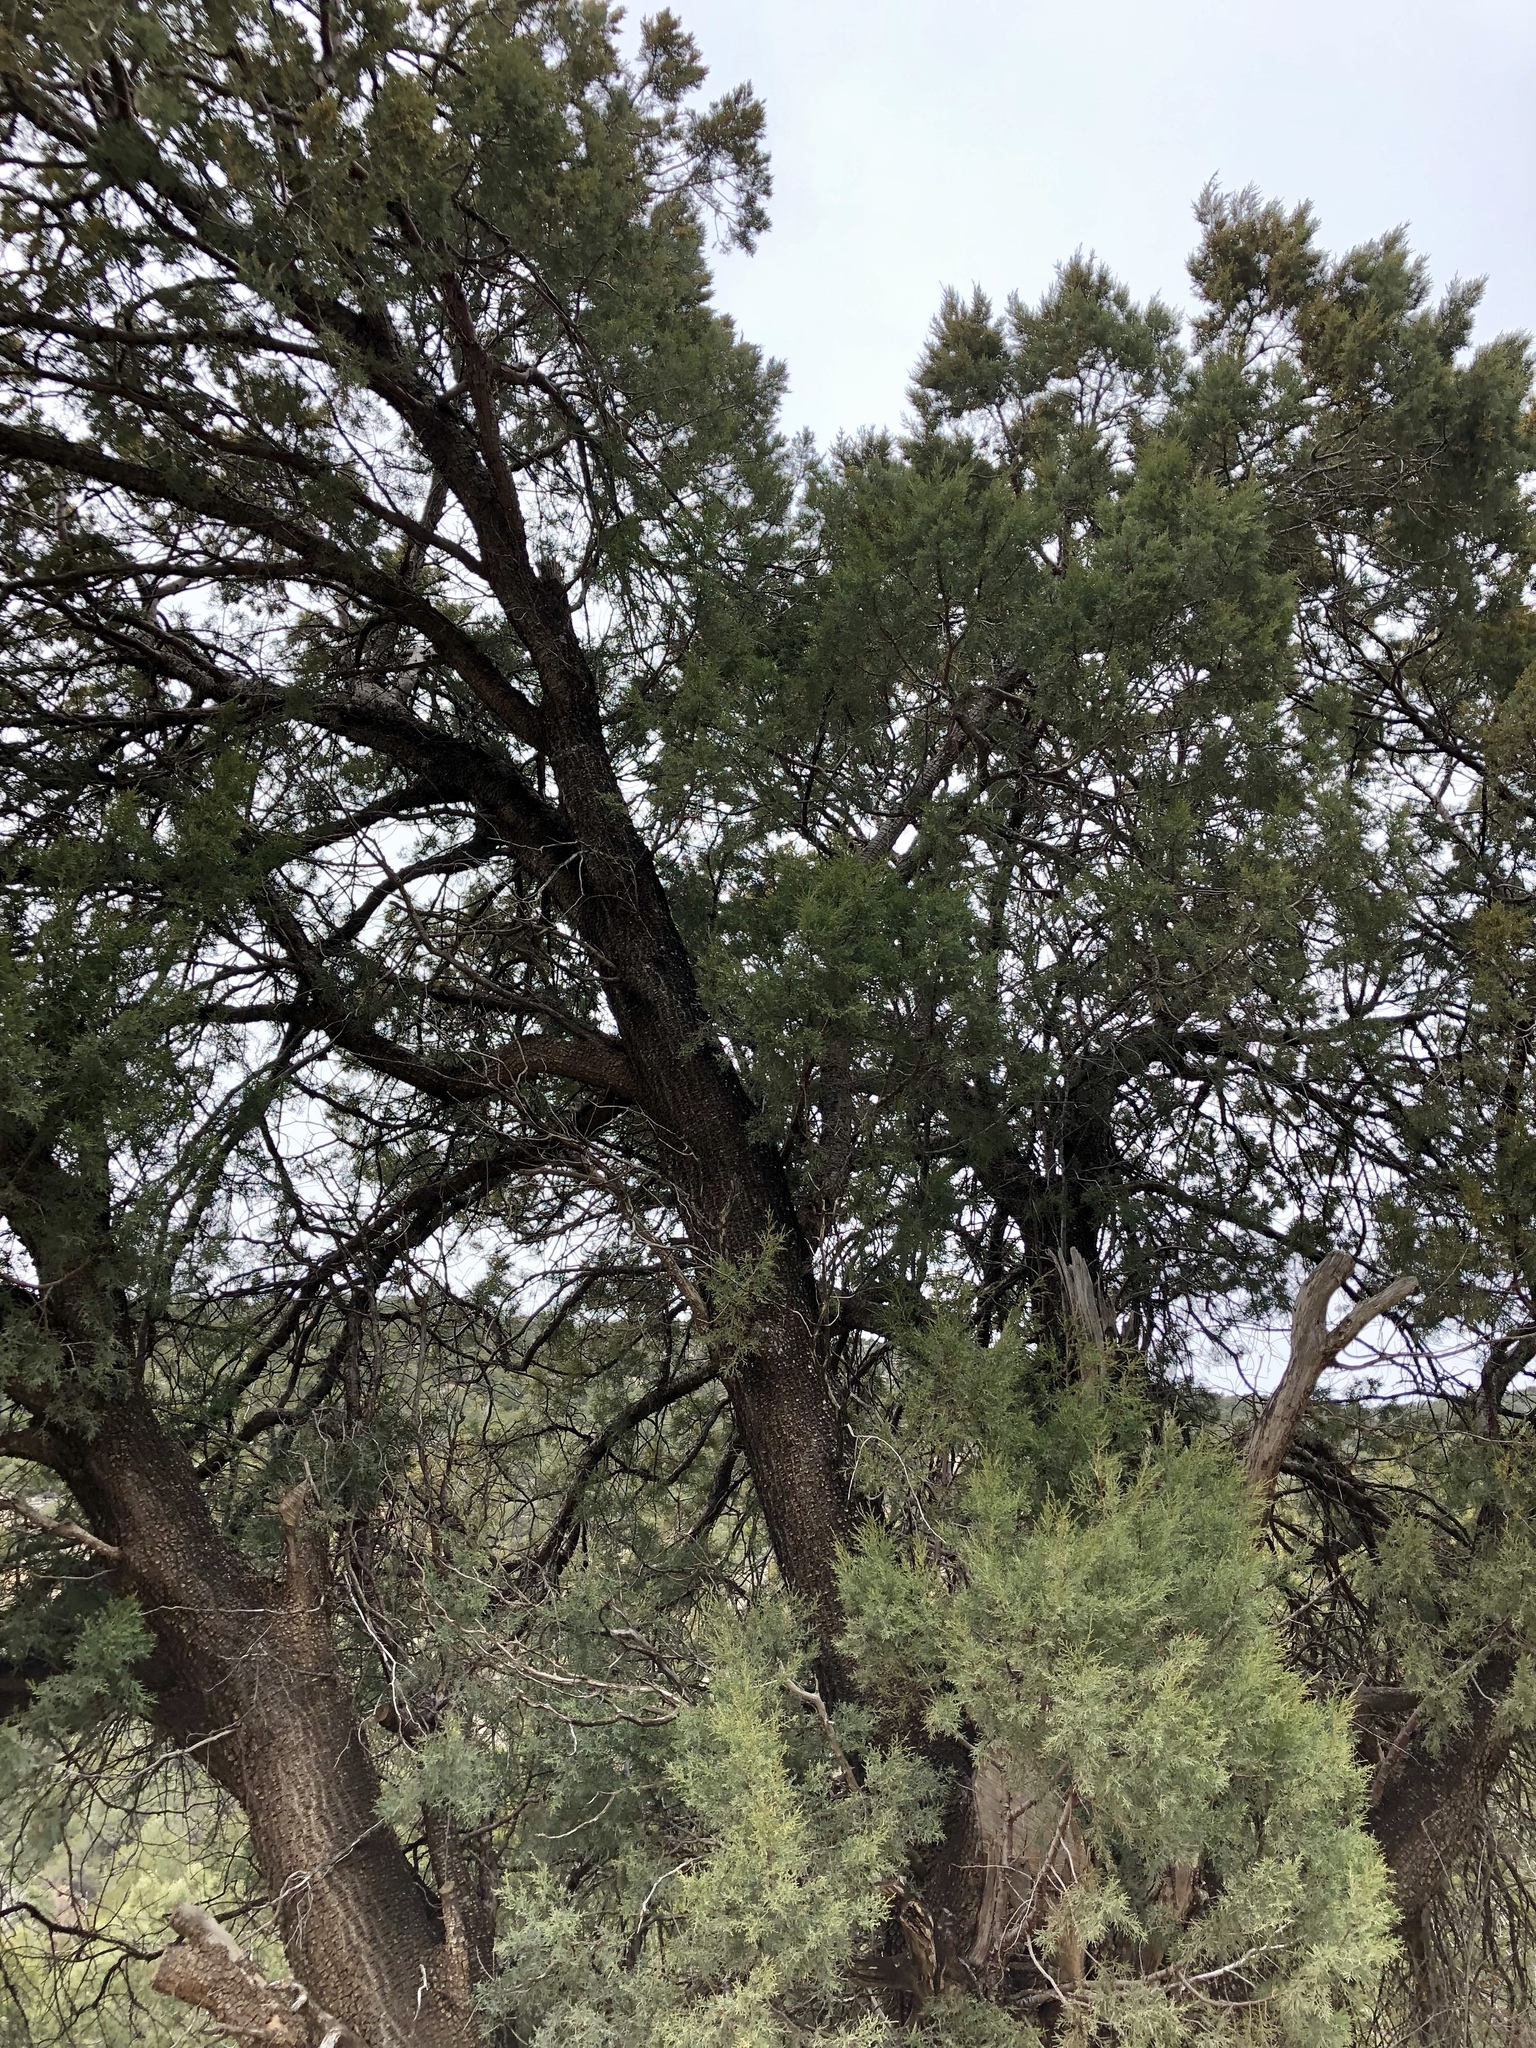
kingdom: Plantae
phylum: Tracheophyta
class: Pinopsida
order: Pinales
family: Cupressaceae
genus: Juniperus
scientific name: Juniperus deppeana
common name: Alligator juniper
